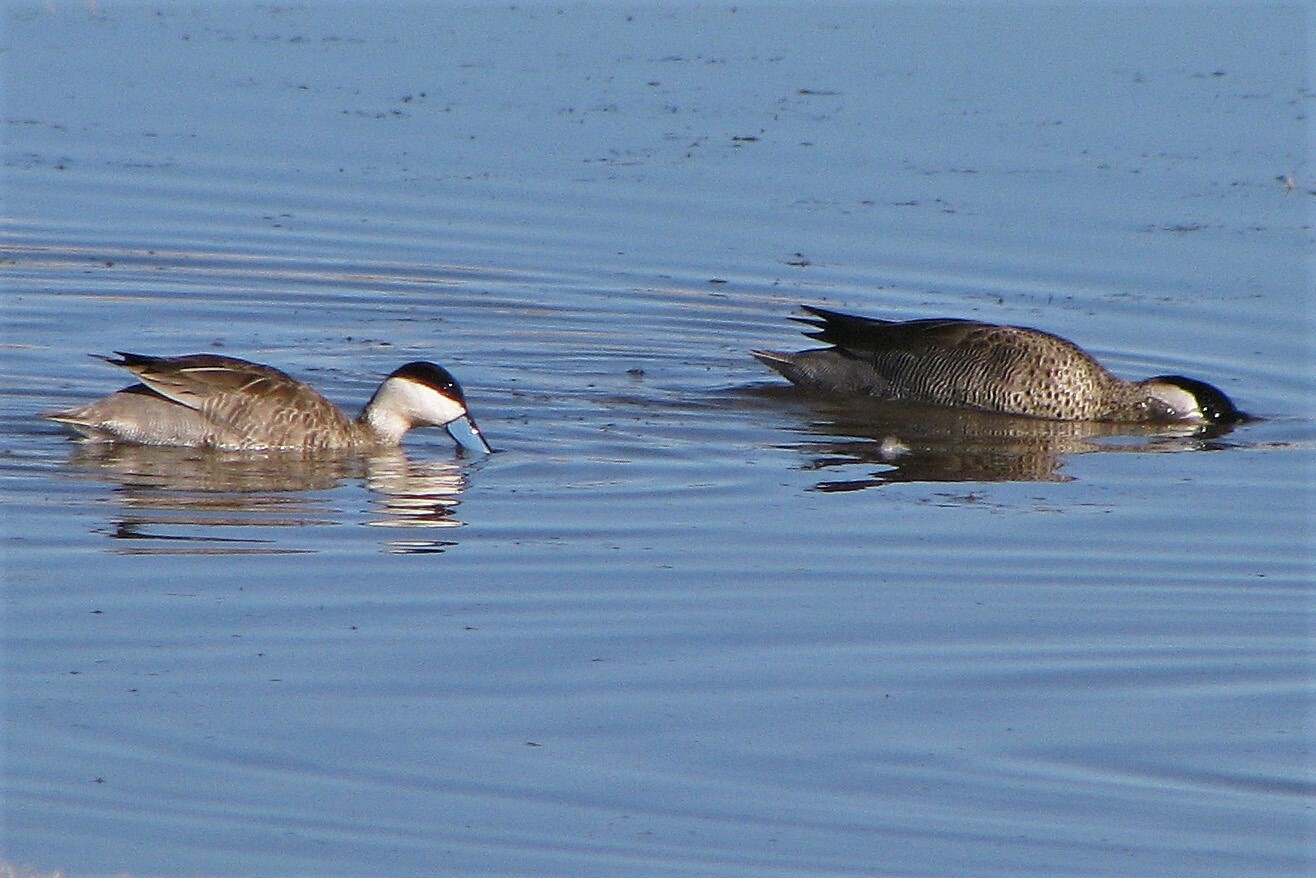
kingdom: Animalia
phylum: Chordata
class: Aves
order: Anseriformes
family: Anatidae
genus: Spatula
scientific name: Spatula puna
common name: Puna teal
